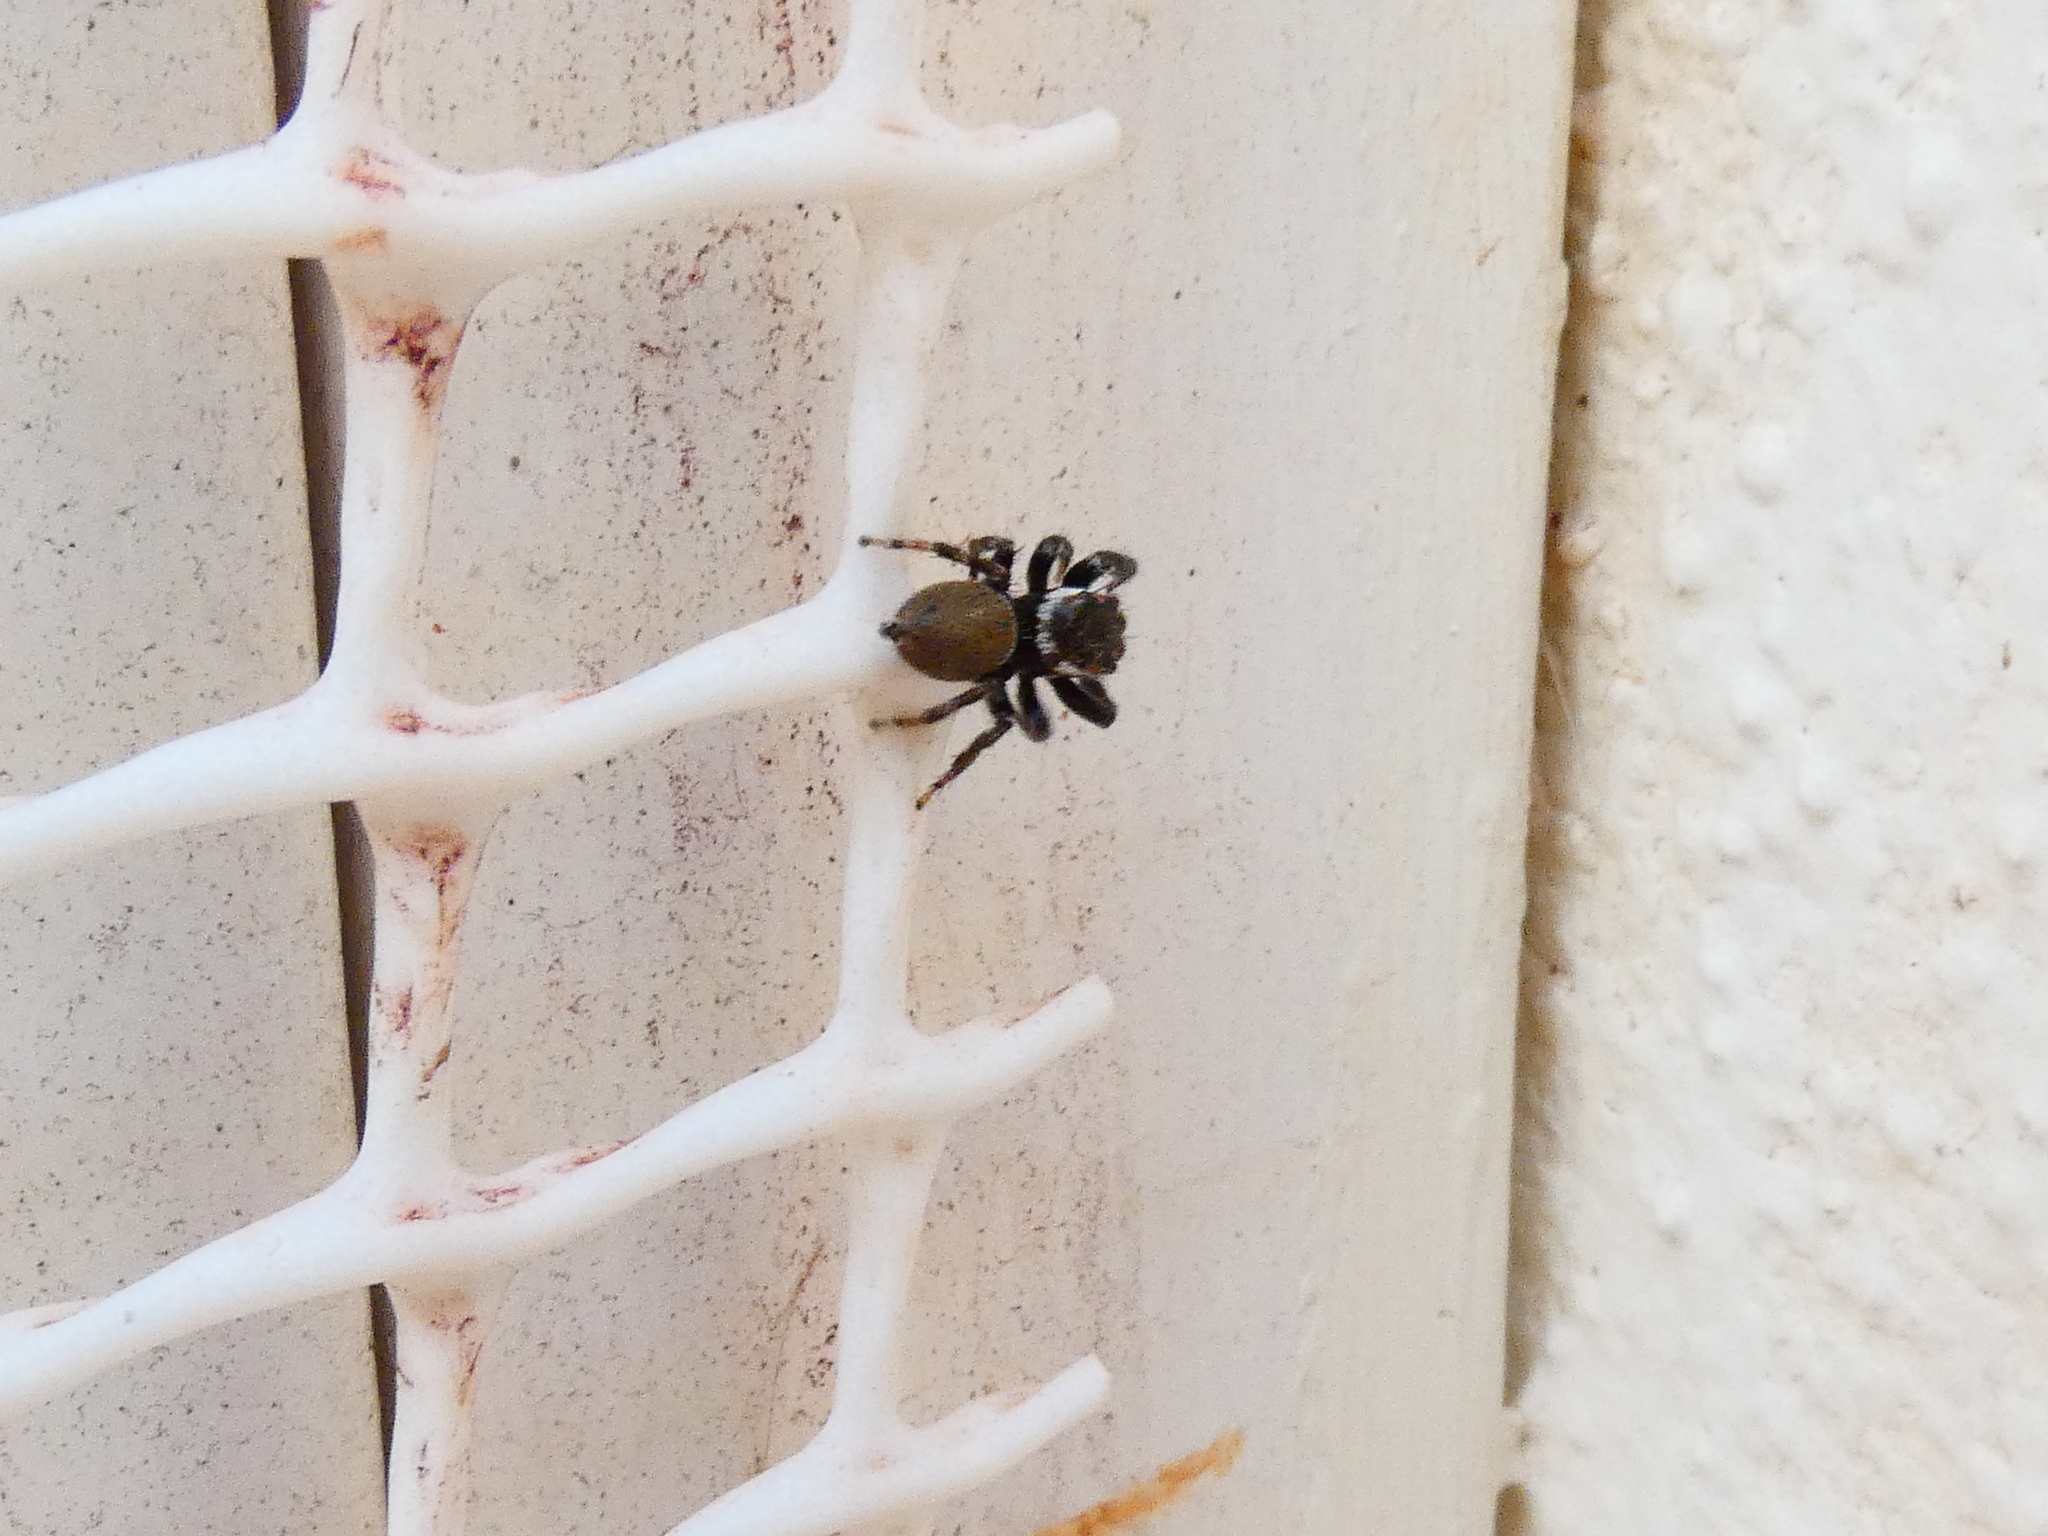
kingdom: Animalia
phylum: Arthropoda
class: Arachnida
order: Araneae
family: Salticidae
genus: Hasarius
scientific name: Hasarius adansoni
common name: Jumping spider
